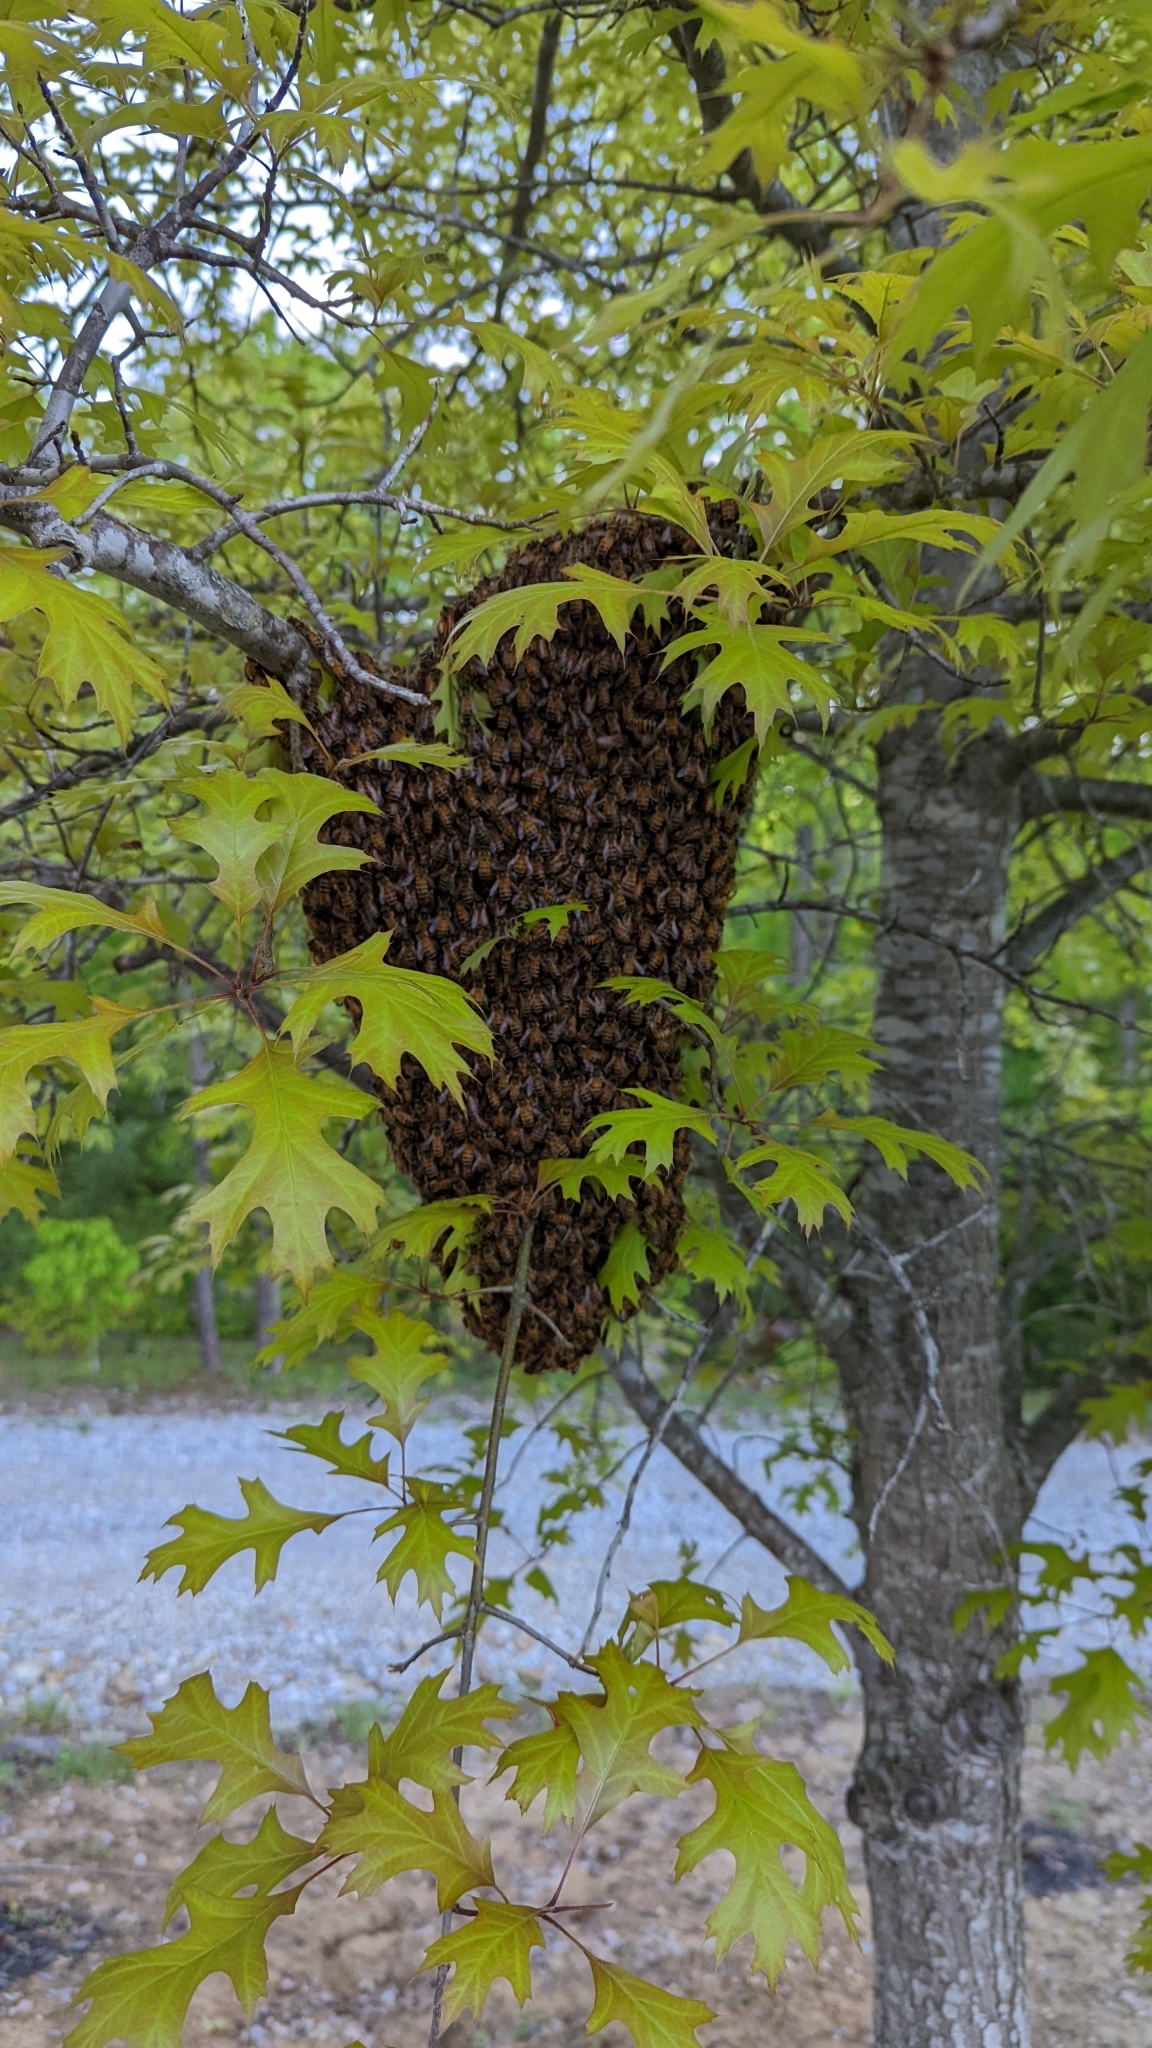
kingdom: Animalia
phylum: Arthropoda
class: Insecta
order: Hymenoptera
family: Apidae
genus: Apis
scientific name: Apis mellifera
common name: Honey bee
